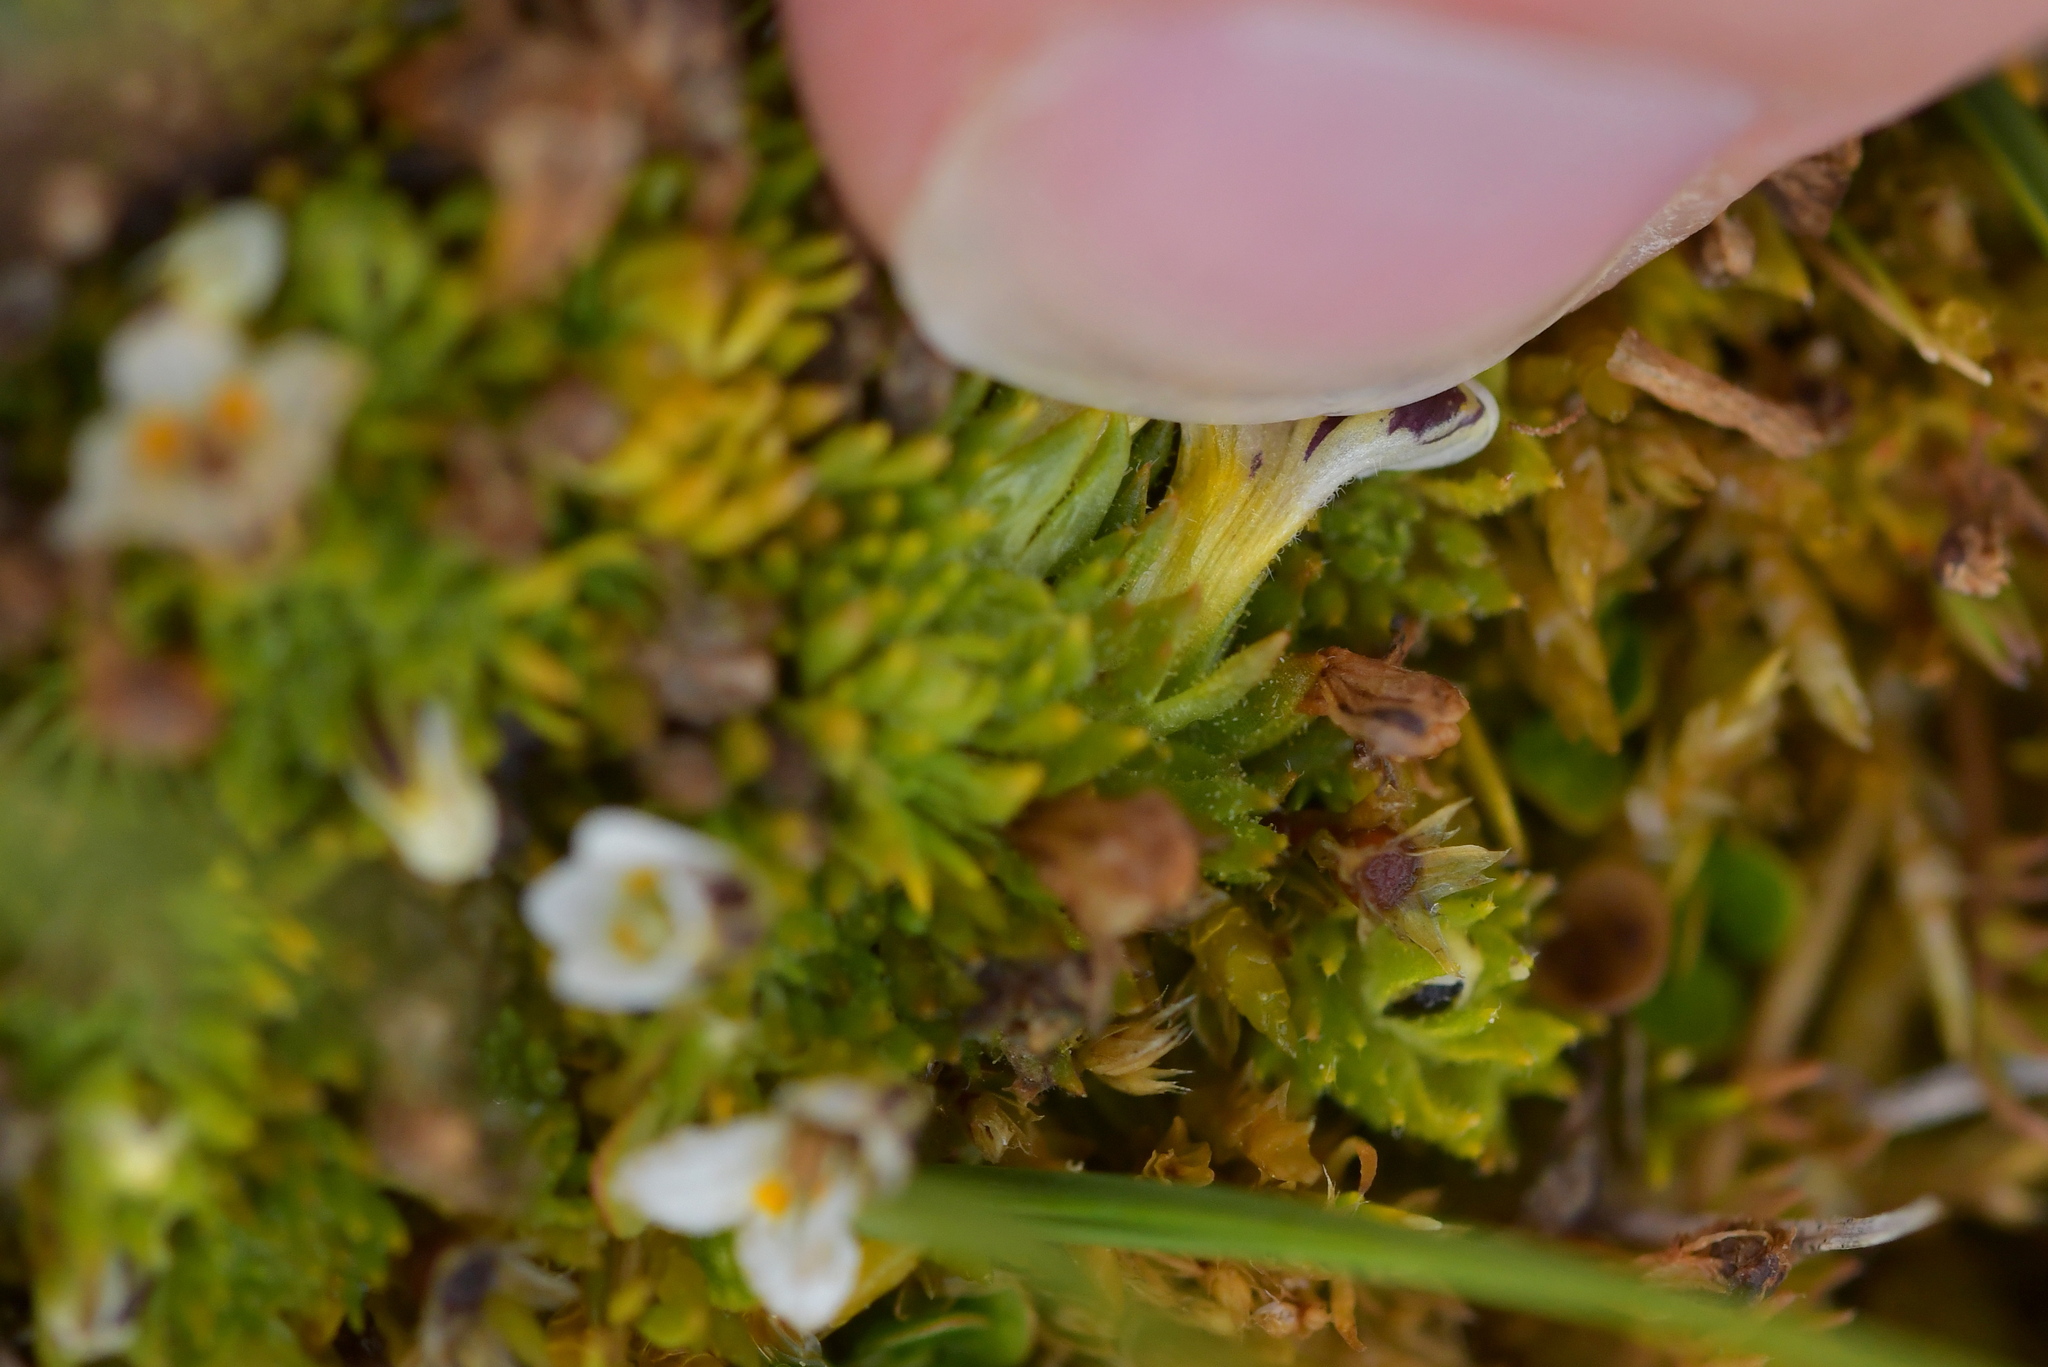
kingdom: Plantae
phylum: Tracheophyta
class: Magnoliopsida
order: Lamiales
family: Orobanchaceae
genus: Euphrasia
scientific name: Euphrasia dyeri
